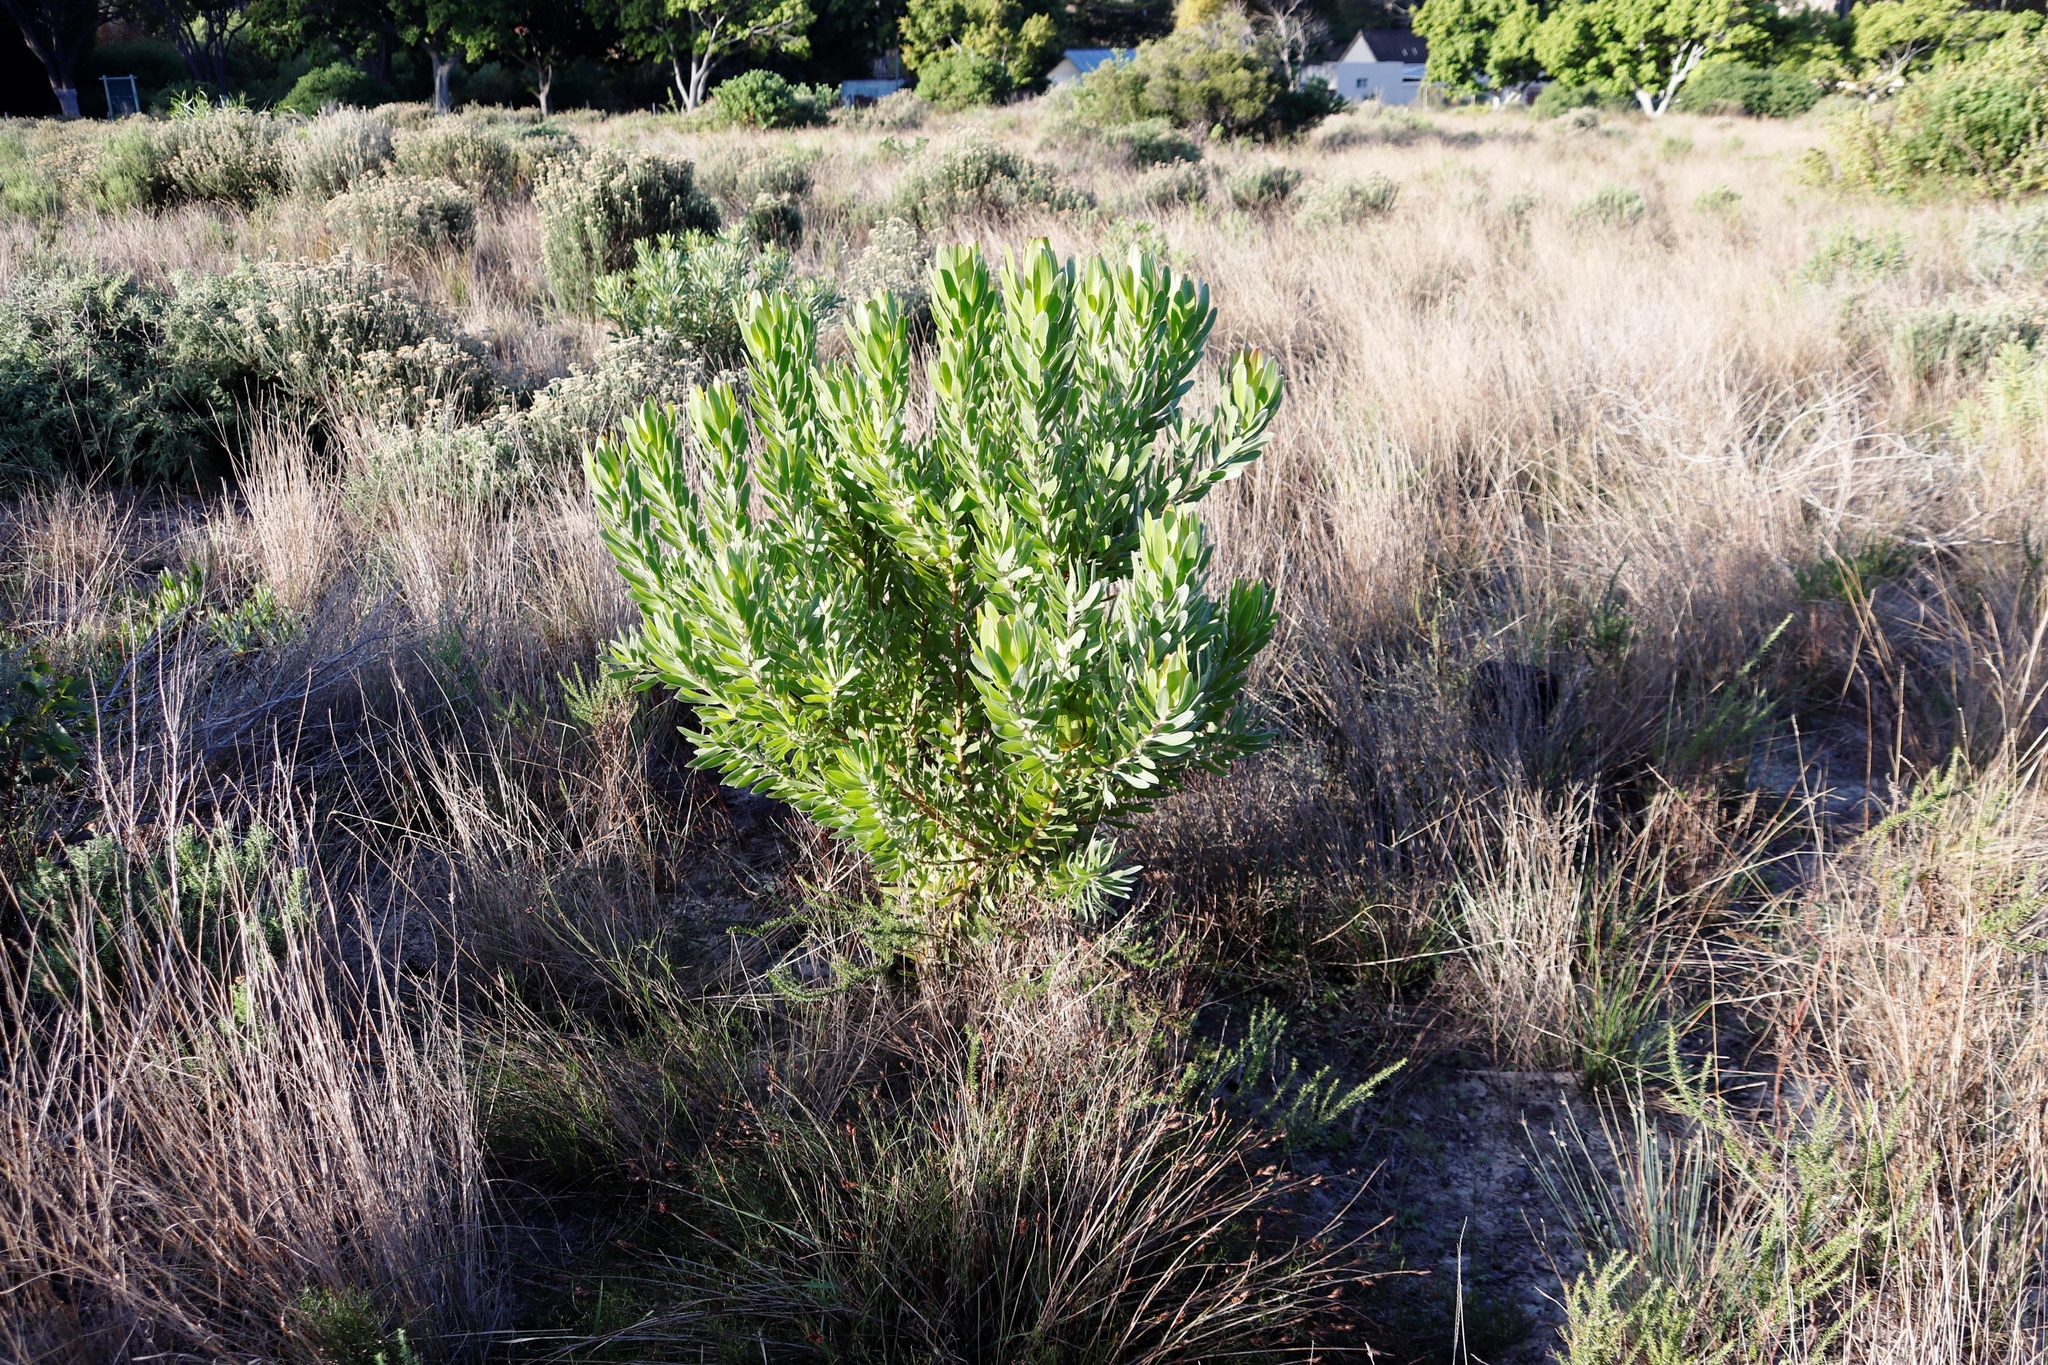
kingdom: Plantae
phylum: Tracheophyta
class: Magnoliopsida
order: Proteales
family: Proteaceae
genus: Leucadendron
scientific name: Leucadendron laureolum
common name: Golden sunshinebush
